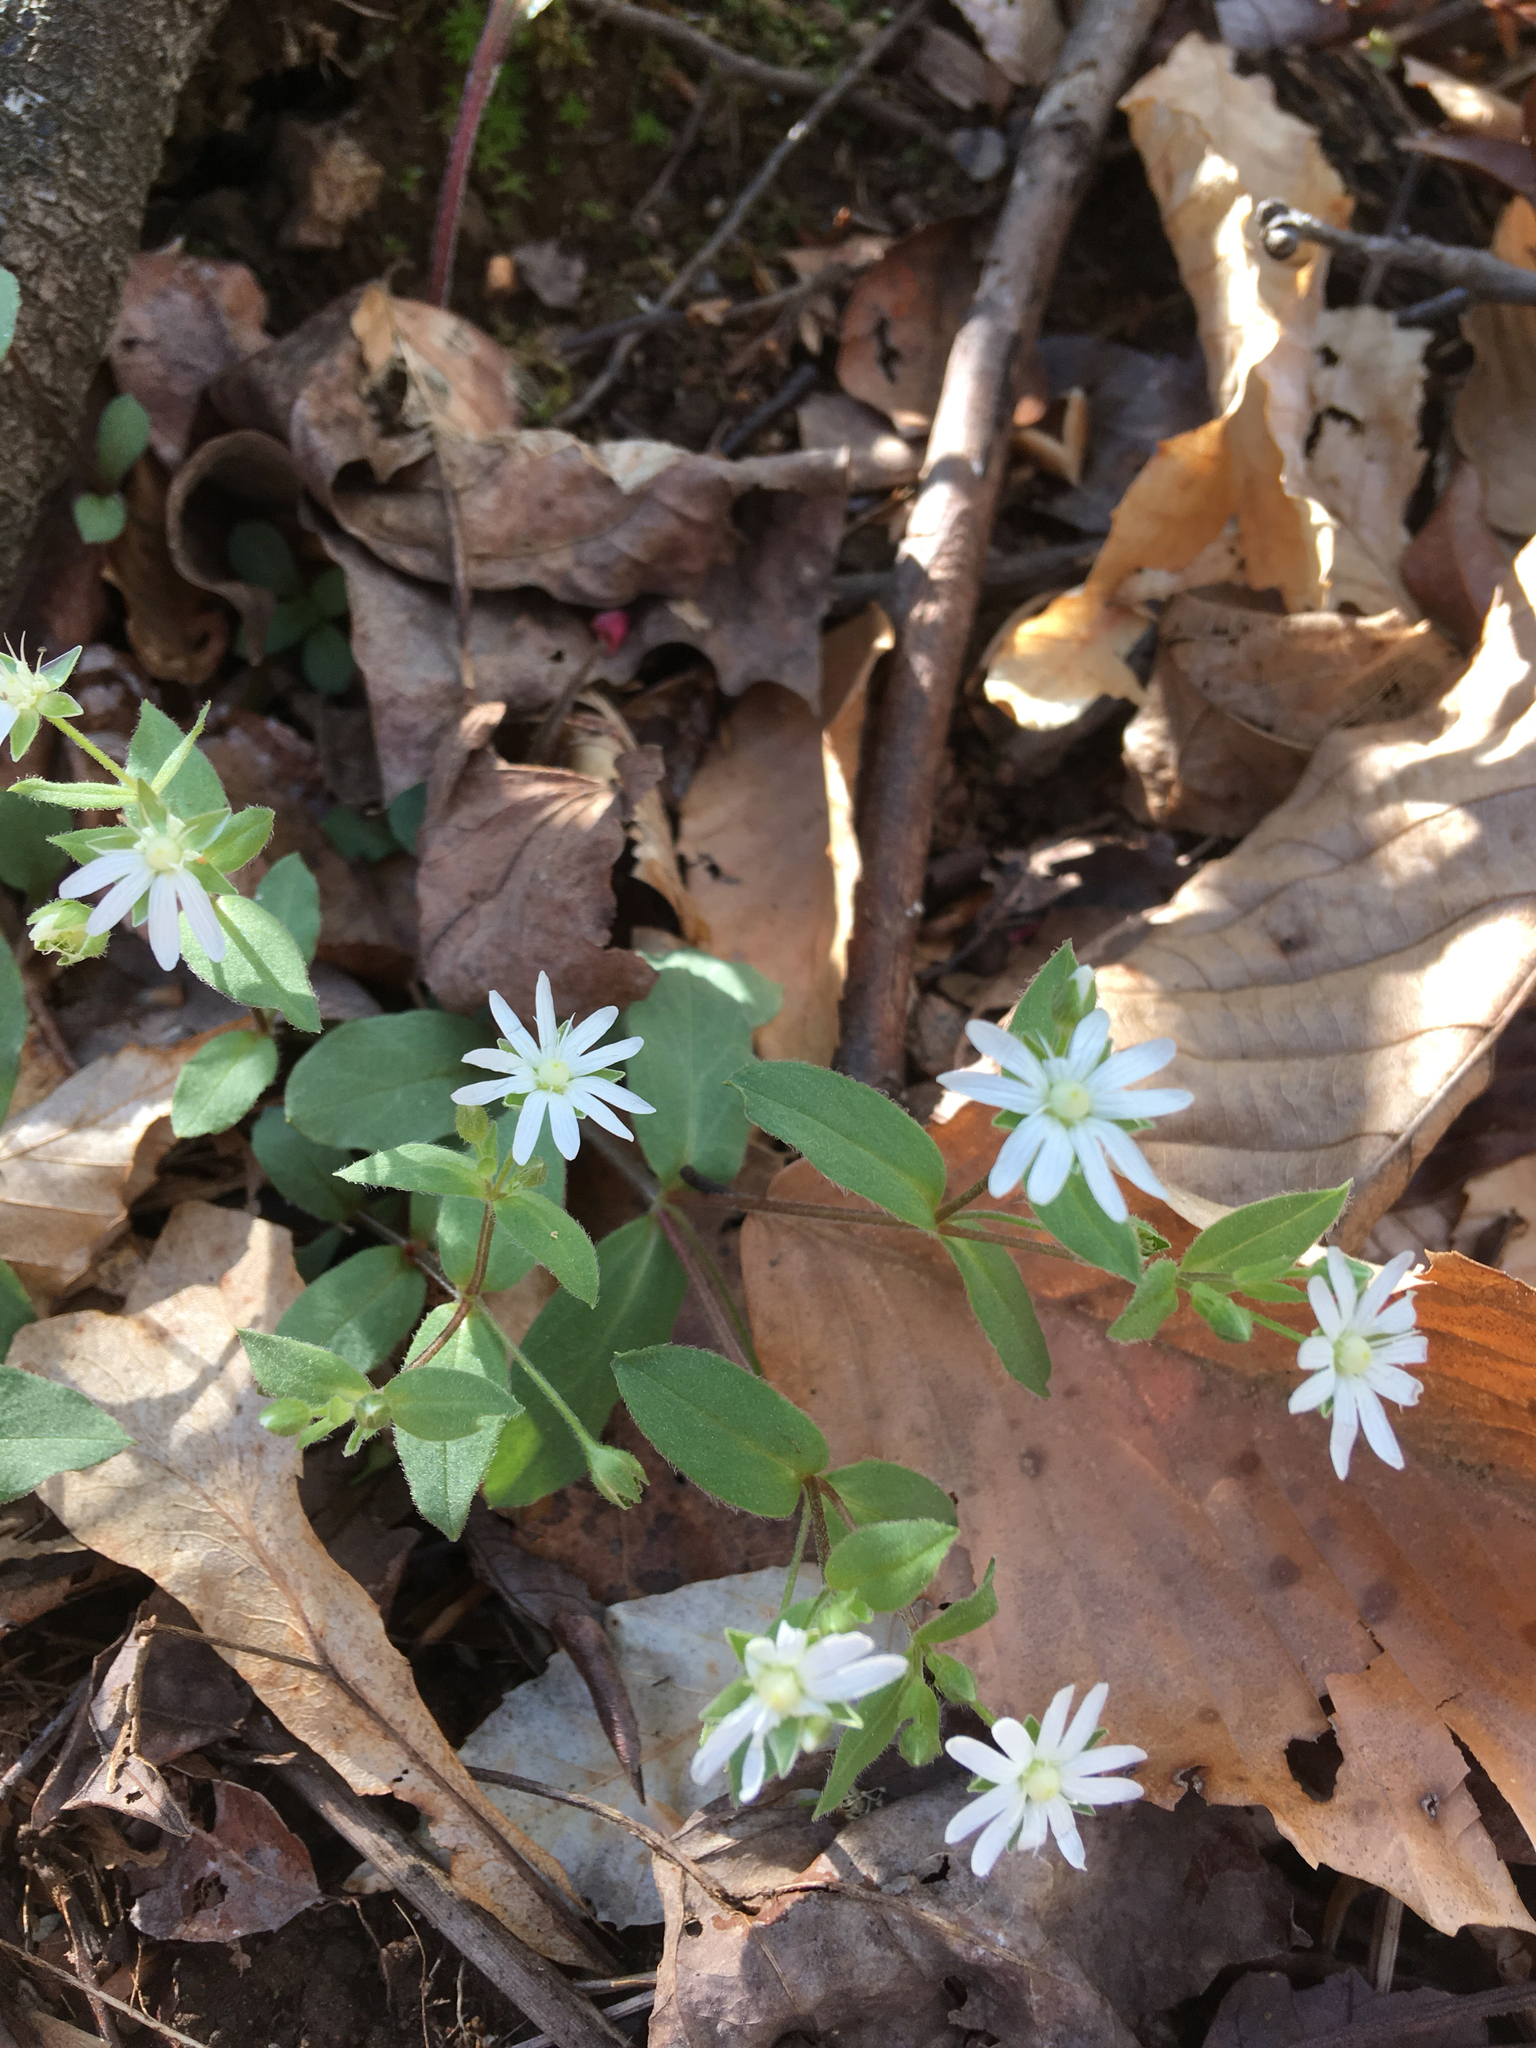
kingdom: Plantae
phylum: Tracheophyta
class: Magnoliopsida
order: Caryophyllales
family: Caryophyllaceae
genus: Stellaria
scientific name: Stellaria pubera
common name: Star chickweed
